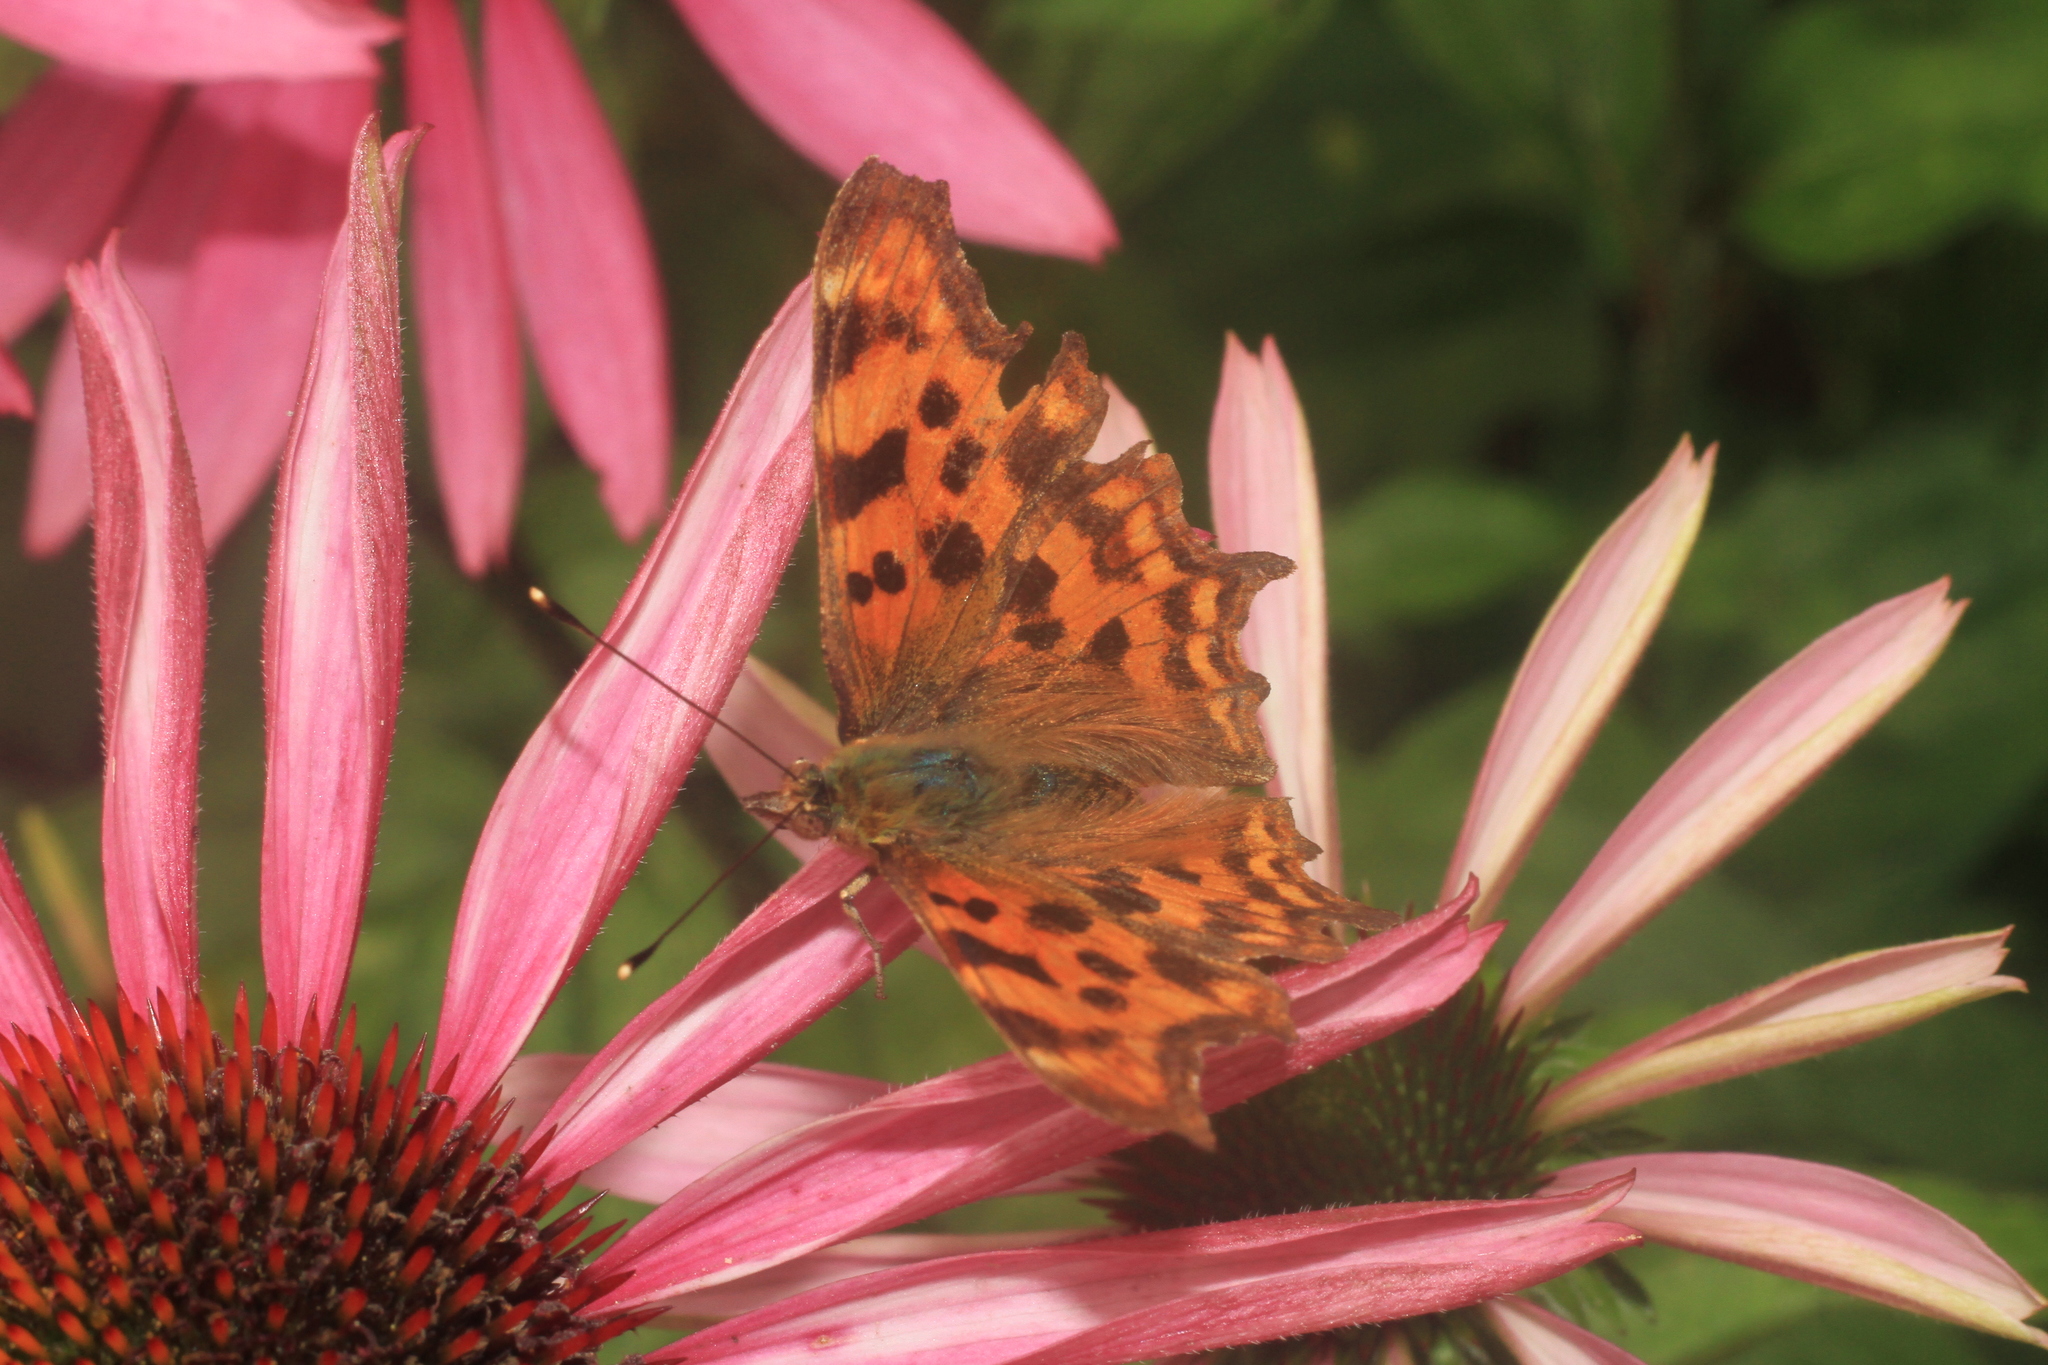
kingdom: Animalia
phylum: Arthropoda
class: Insecta
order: Lepidoptera
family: Nymphalidae
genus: Polygonia
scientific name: Polygonia c-album
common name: Comma
